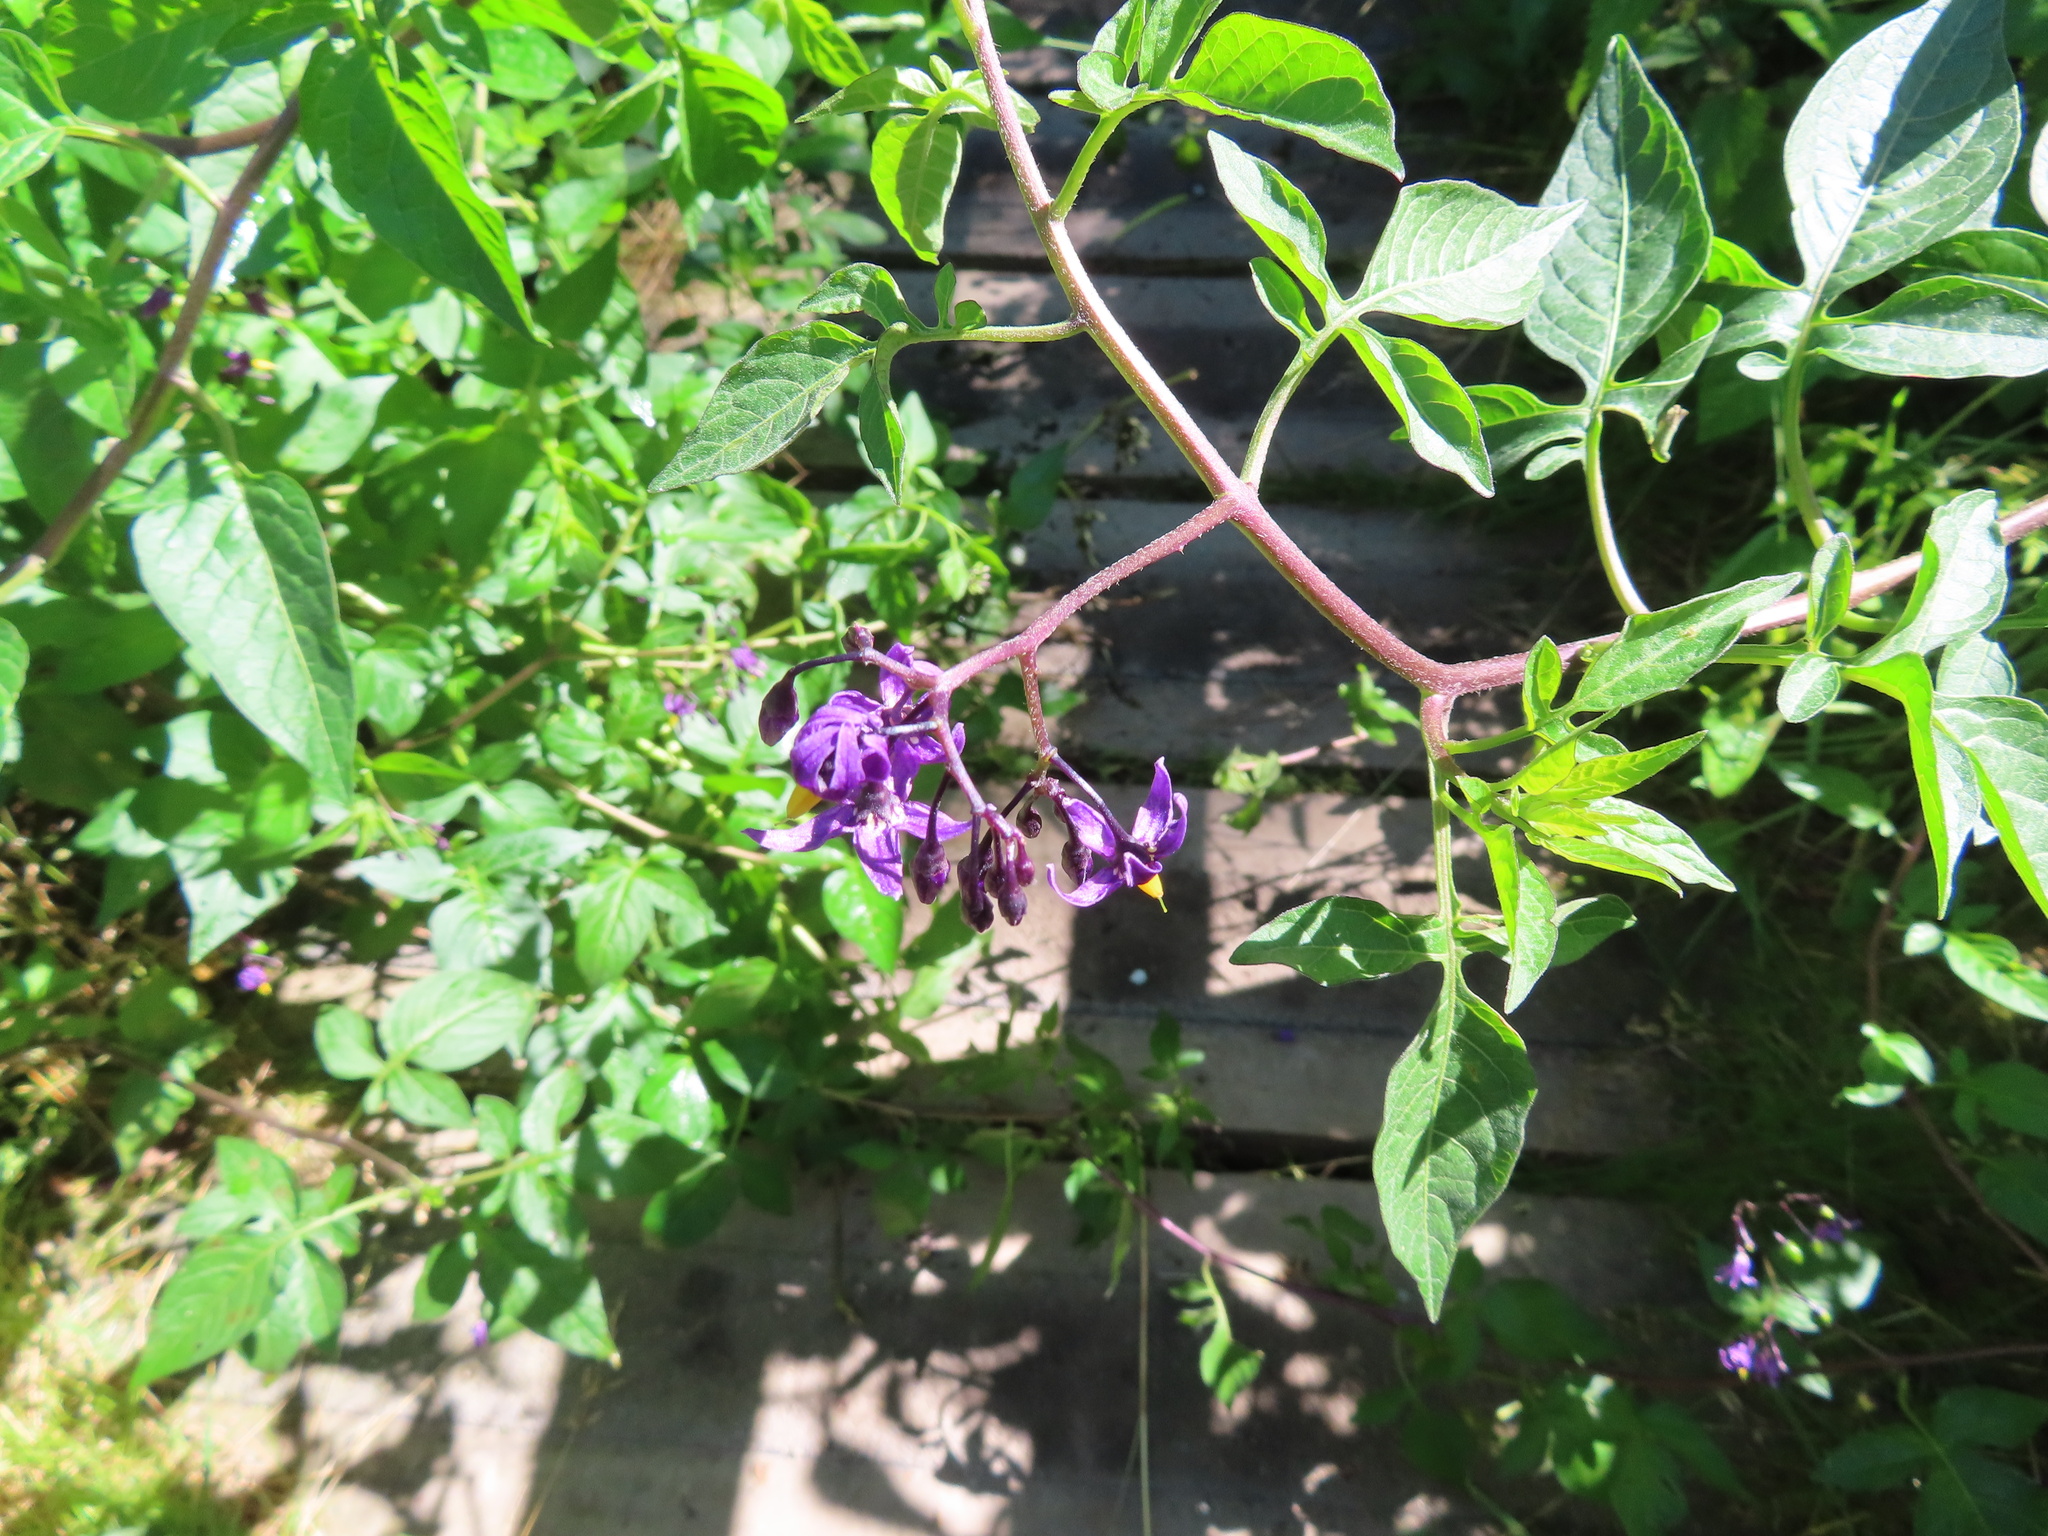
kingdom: Plantae
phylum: Tracheophyta
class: Magnoliopsida
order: Solanales
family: Solanaceae
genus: Solanum
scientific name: Solanum dulcamara
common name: Climbing nightshade
